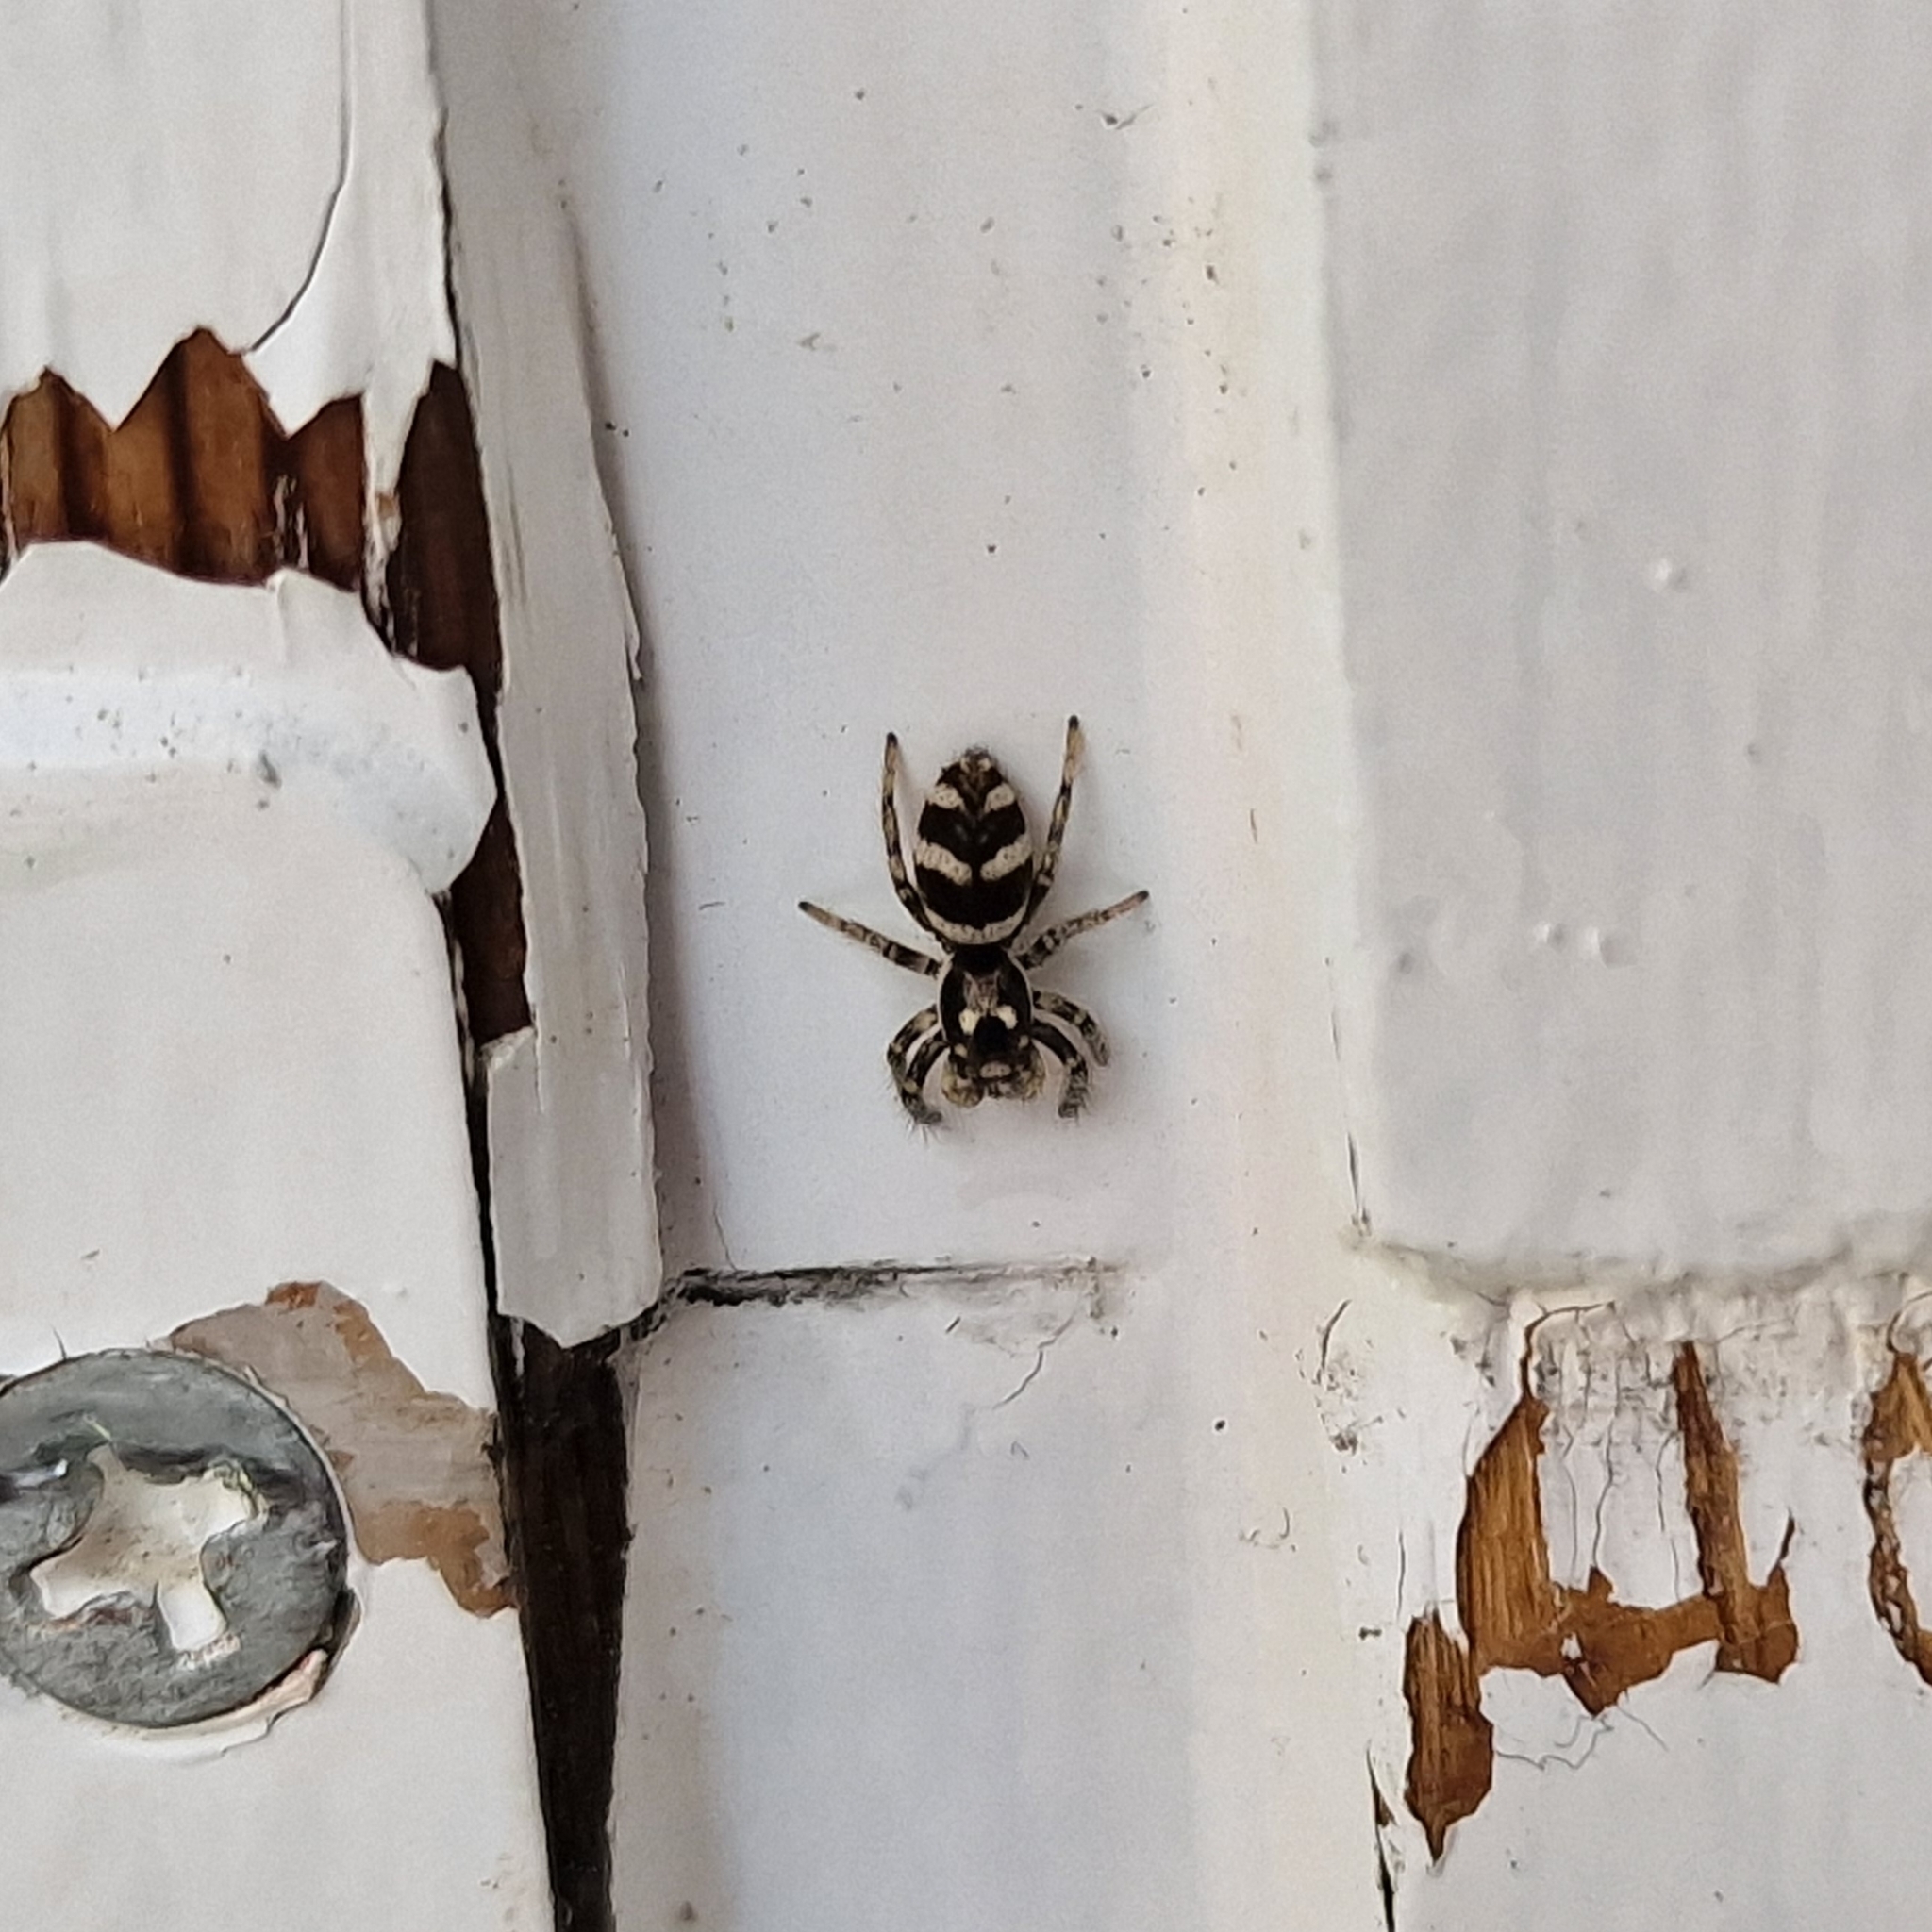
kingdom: Animalia
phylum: Arthropoda
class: Arachnida
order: Araneae
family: Salticidae
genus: Salticus
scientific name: Salticus scenicus
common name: Zebra jumper
